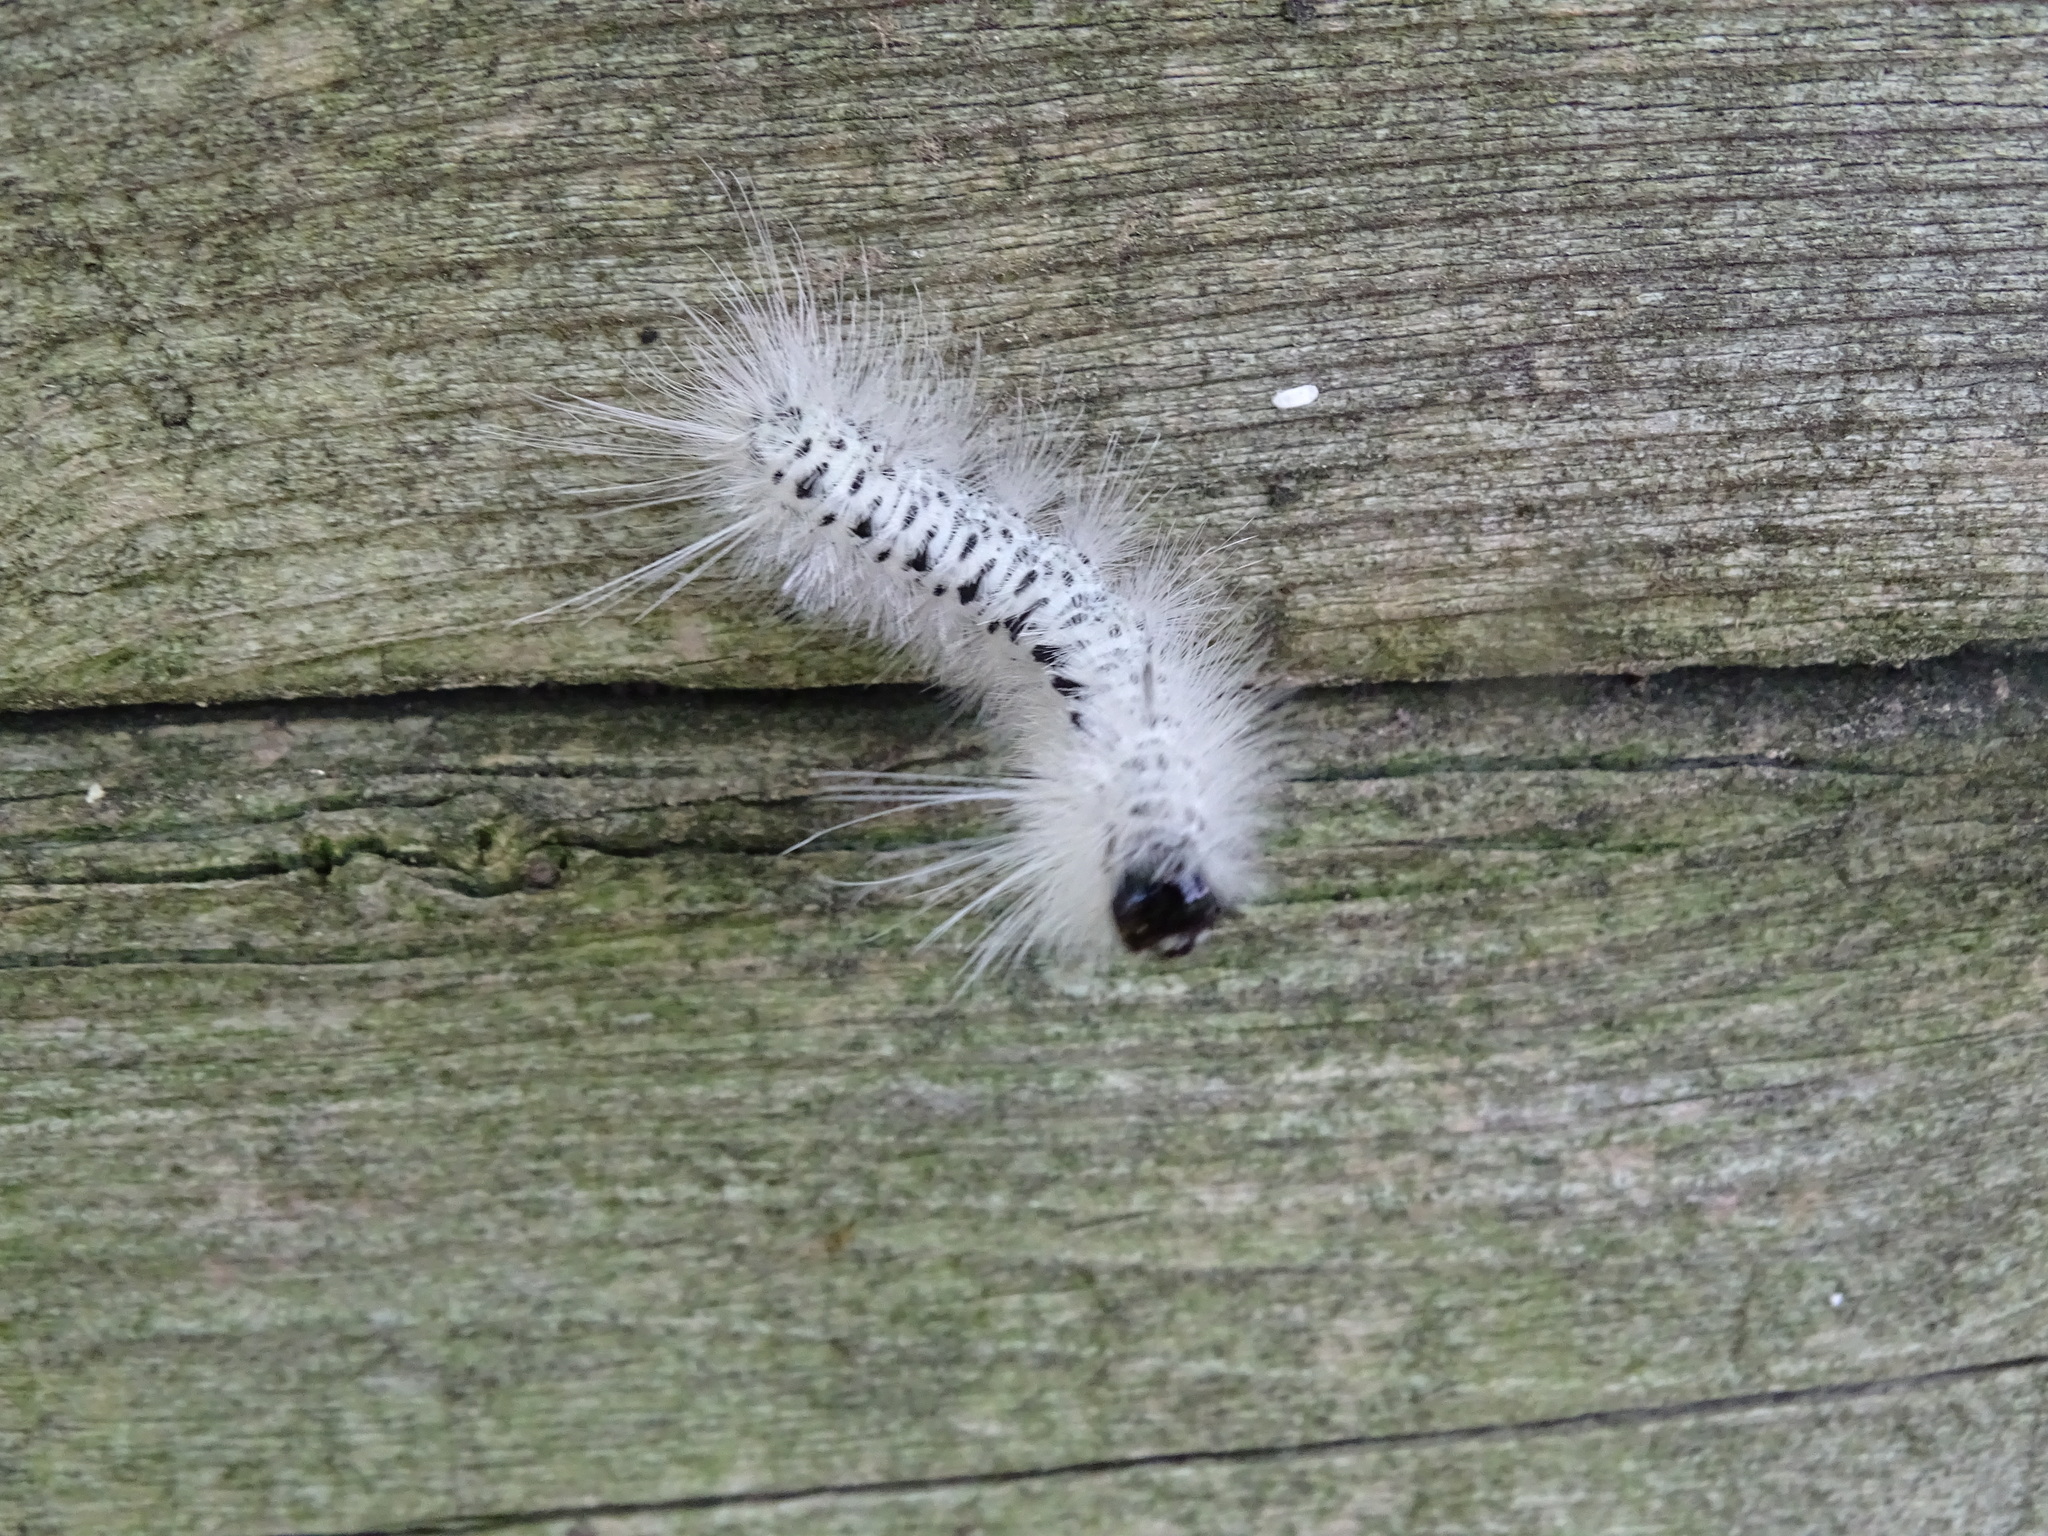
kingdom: Animalia
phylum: Arthropoda
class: Insecta
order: Lepidoptera
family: Erebidae
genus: Lophocampa
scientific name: Lophocampa caryae
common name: Hickory tussock moth
